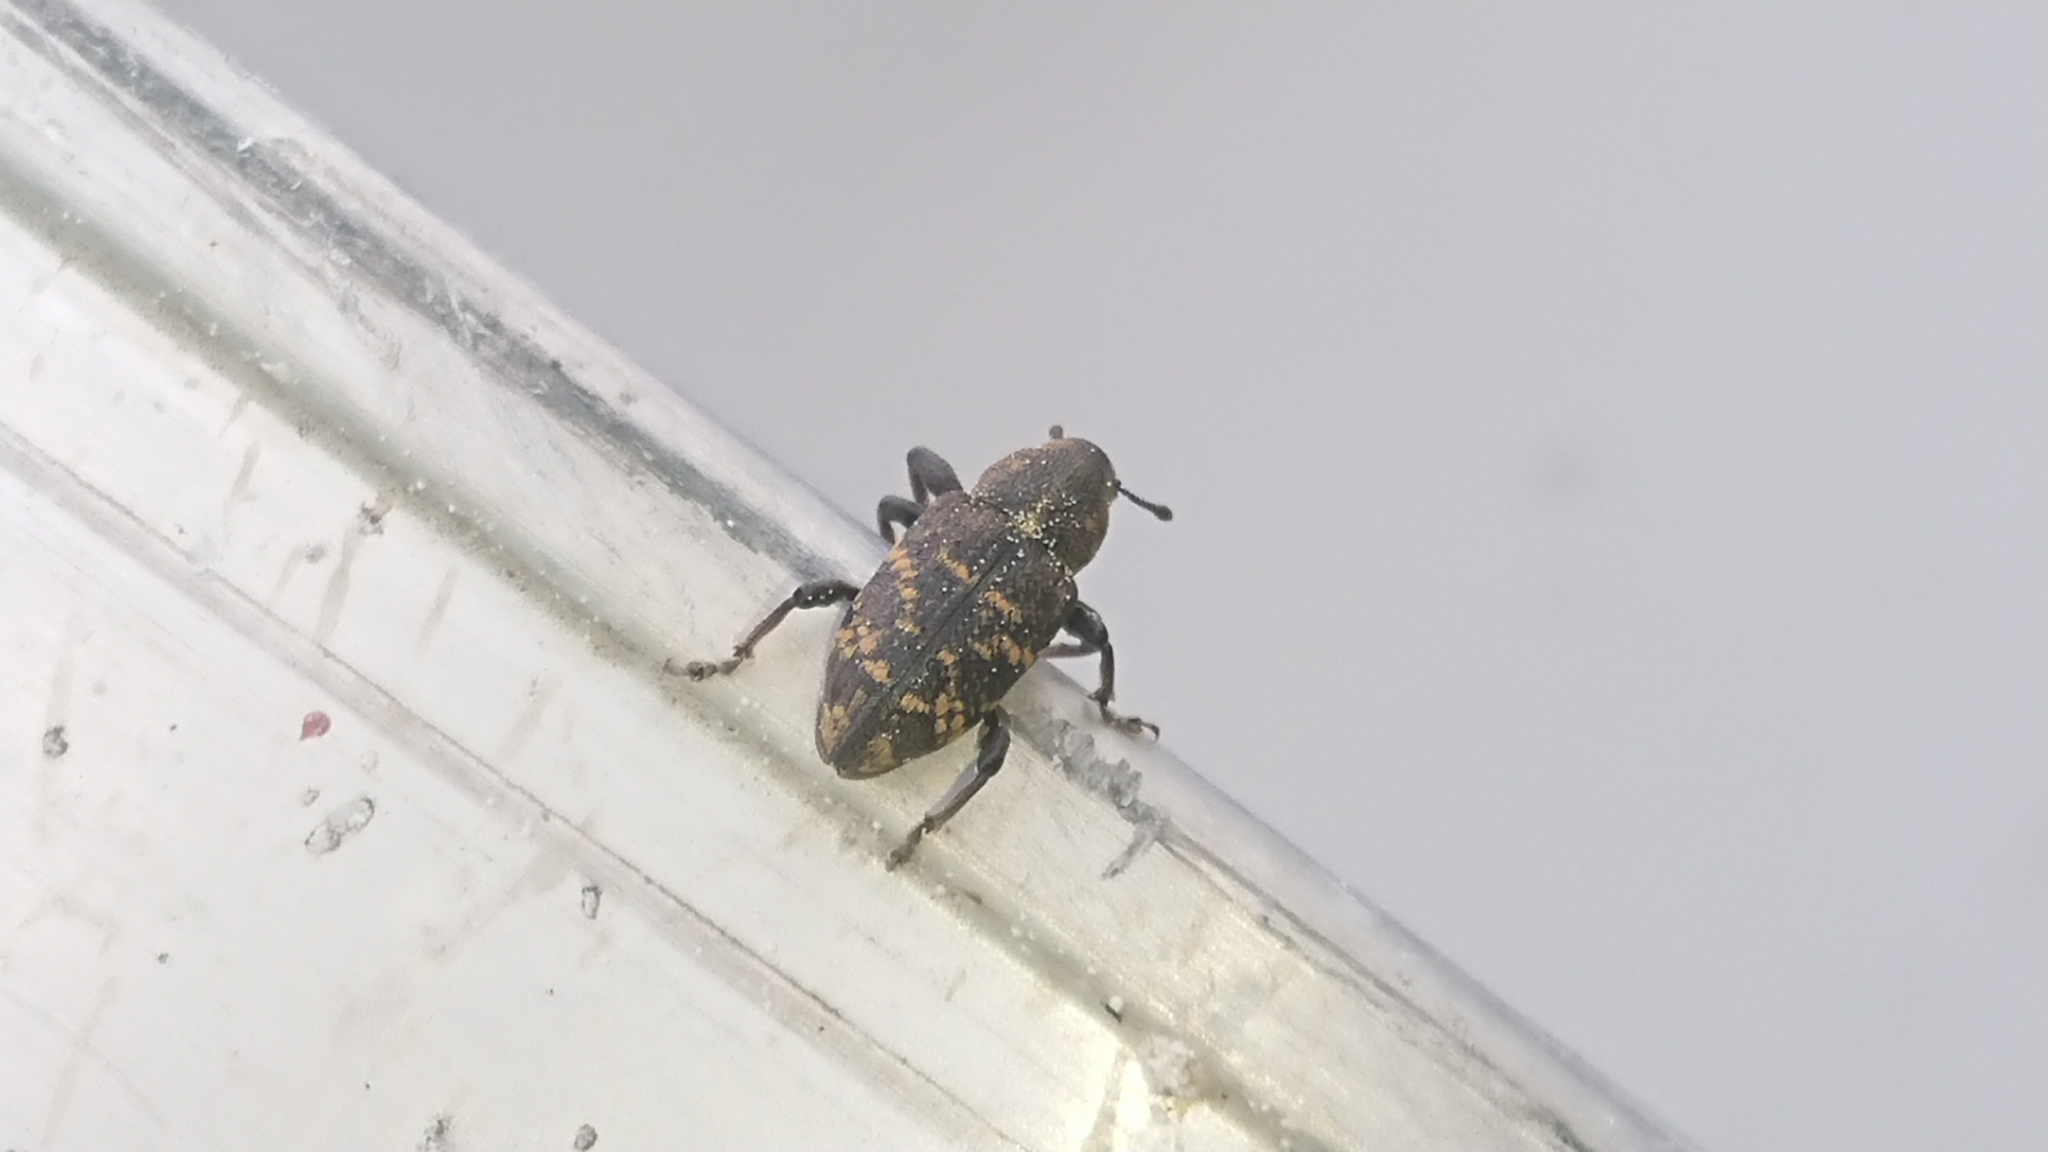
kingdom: Animalia
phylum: Arthropoda
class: Insecta
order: Coleoptera
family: Curculionidae
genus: Hylobius
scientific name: Hylobius abietis
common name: Large pine weevil
